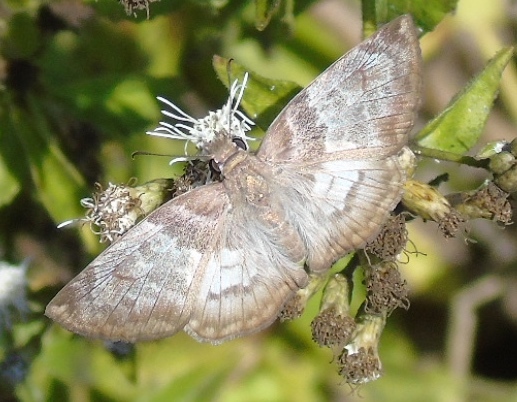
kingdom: Animalia
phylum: Arthropoda
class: Insecta
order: Lepidoptera
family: Hesperiidae
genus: Mylon
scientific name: Mylon pelopidas
